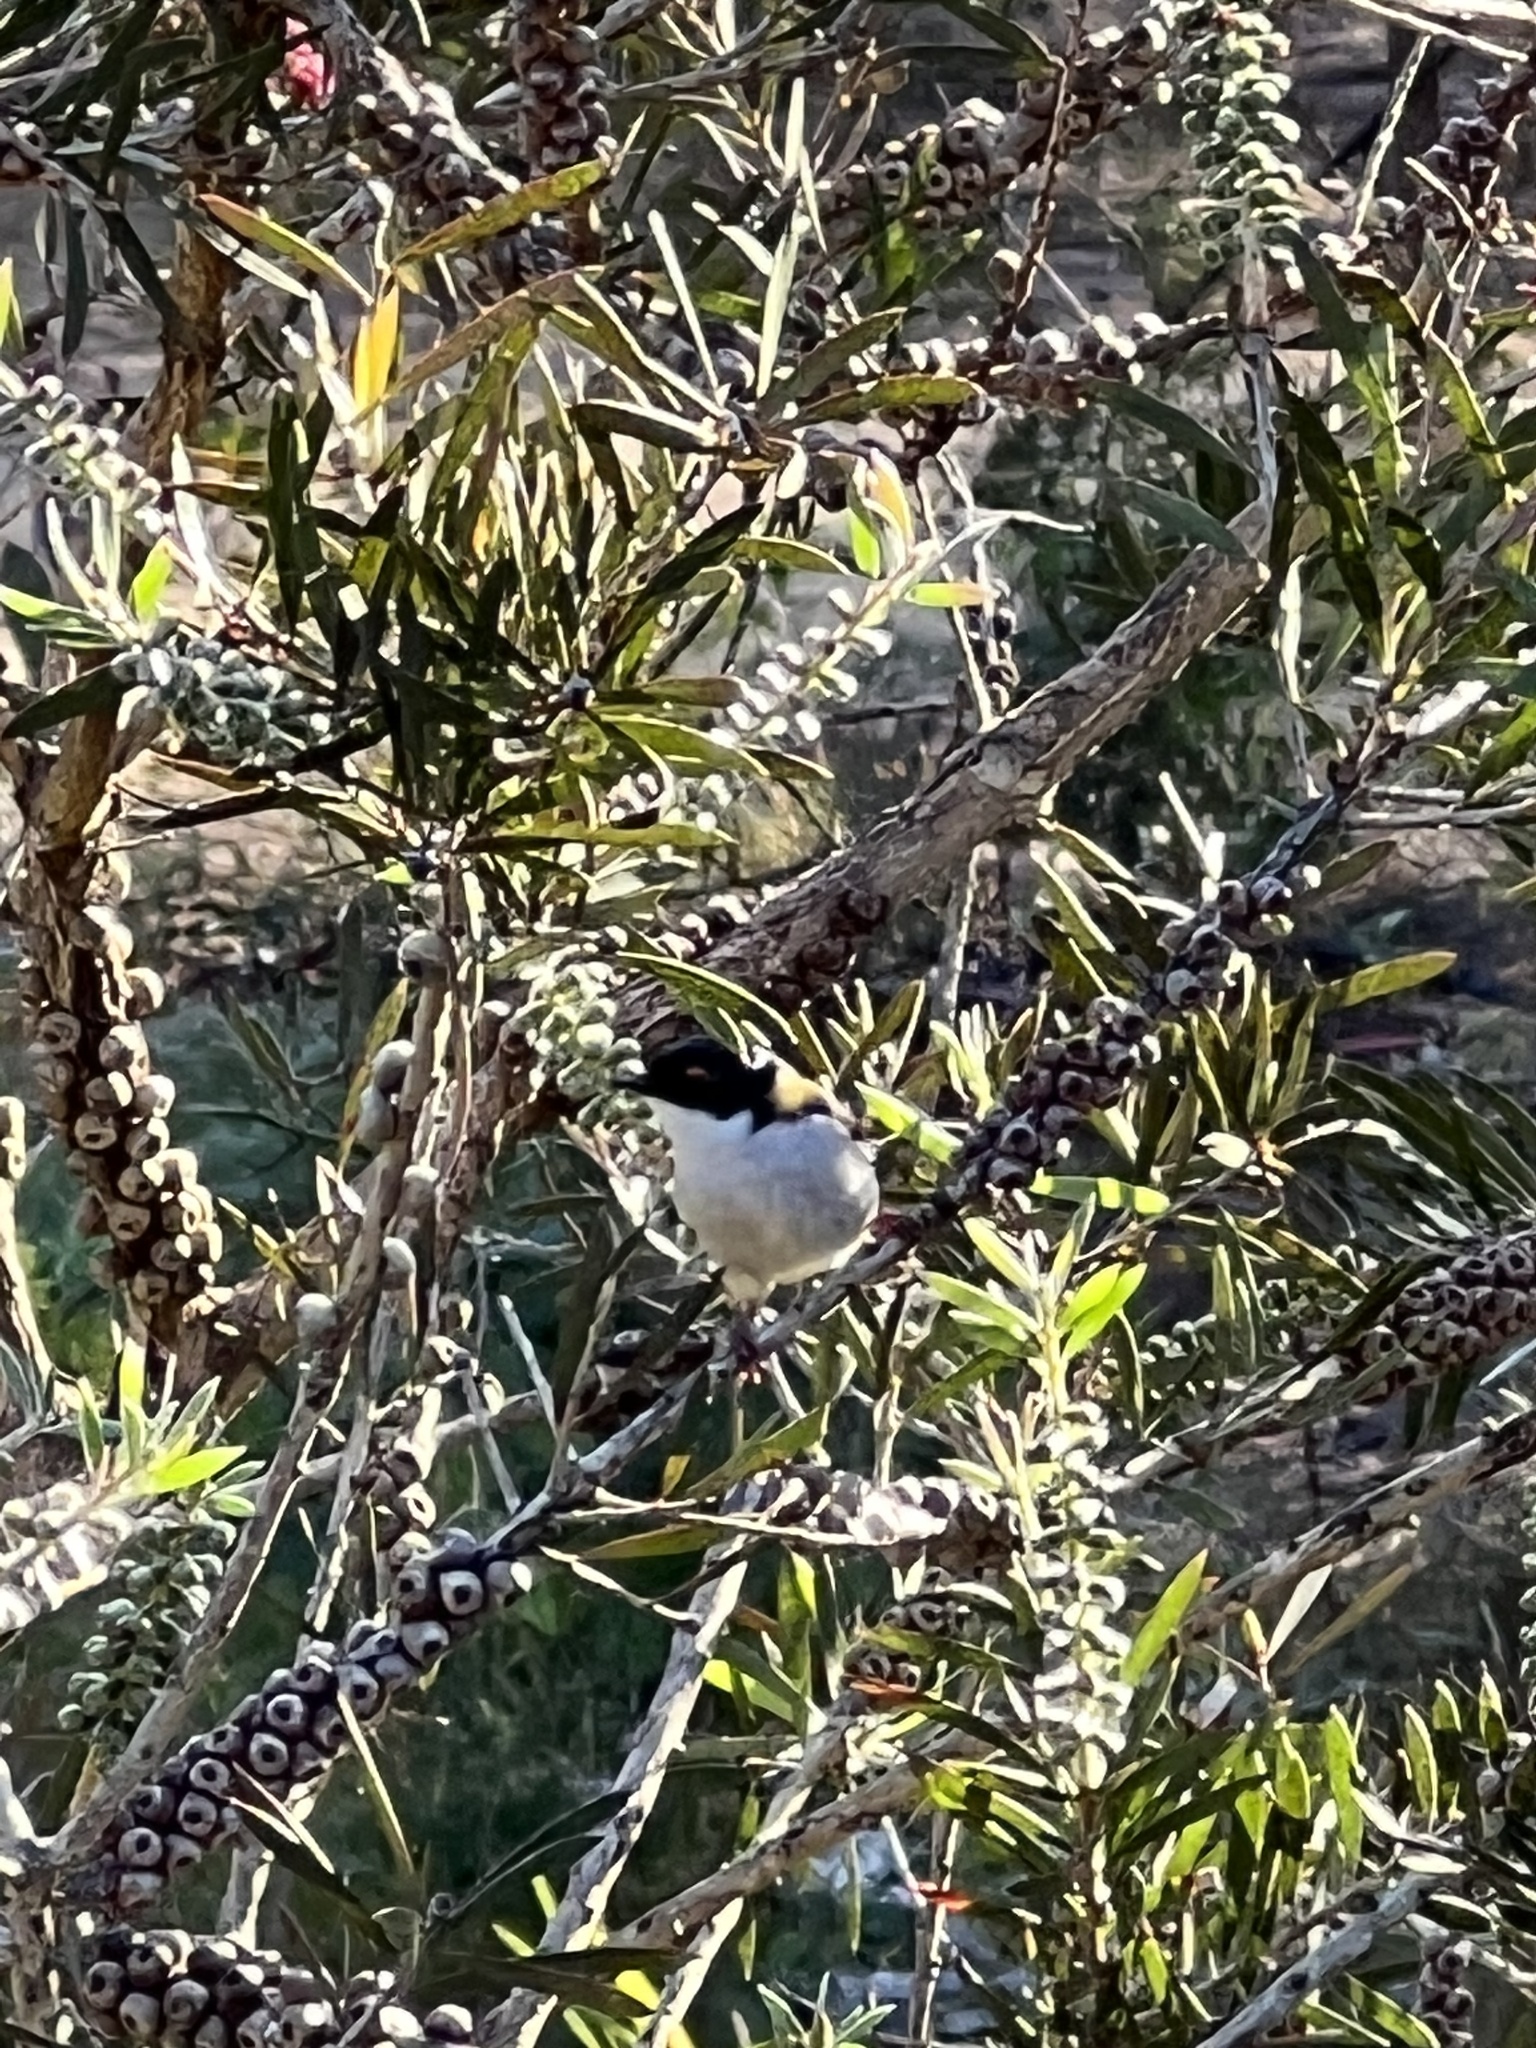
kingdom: Animalia
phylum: Chordata
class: Aves
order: Passeriformes
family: Meliphagidae
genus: Melithreptus
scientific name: Melithreptus lunatus
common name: White-naped honeyeater
